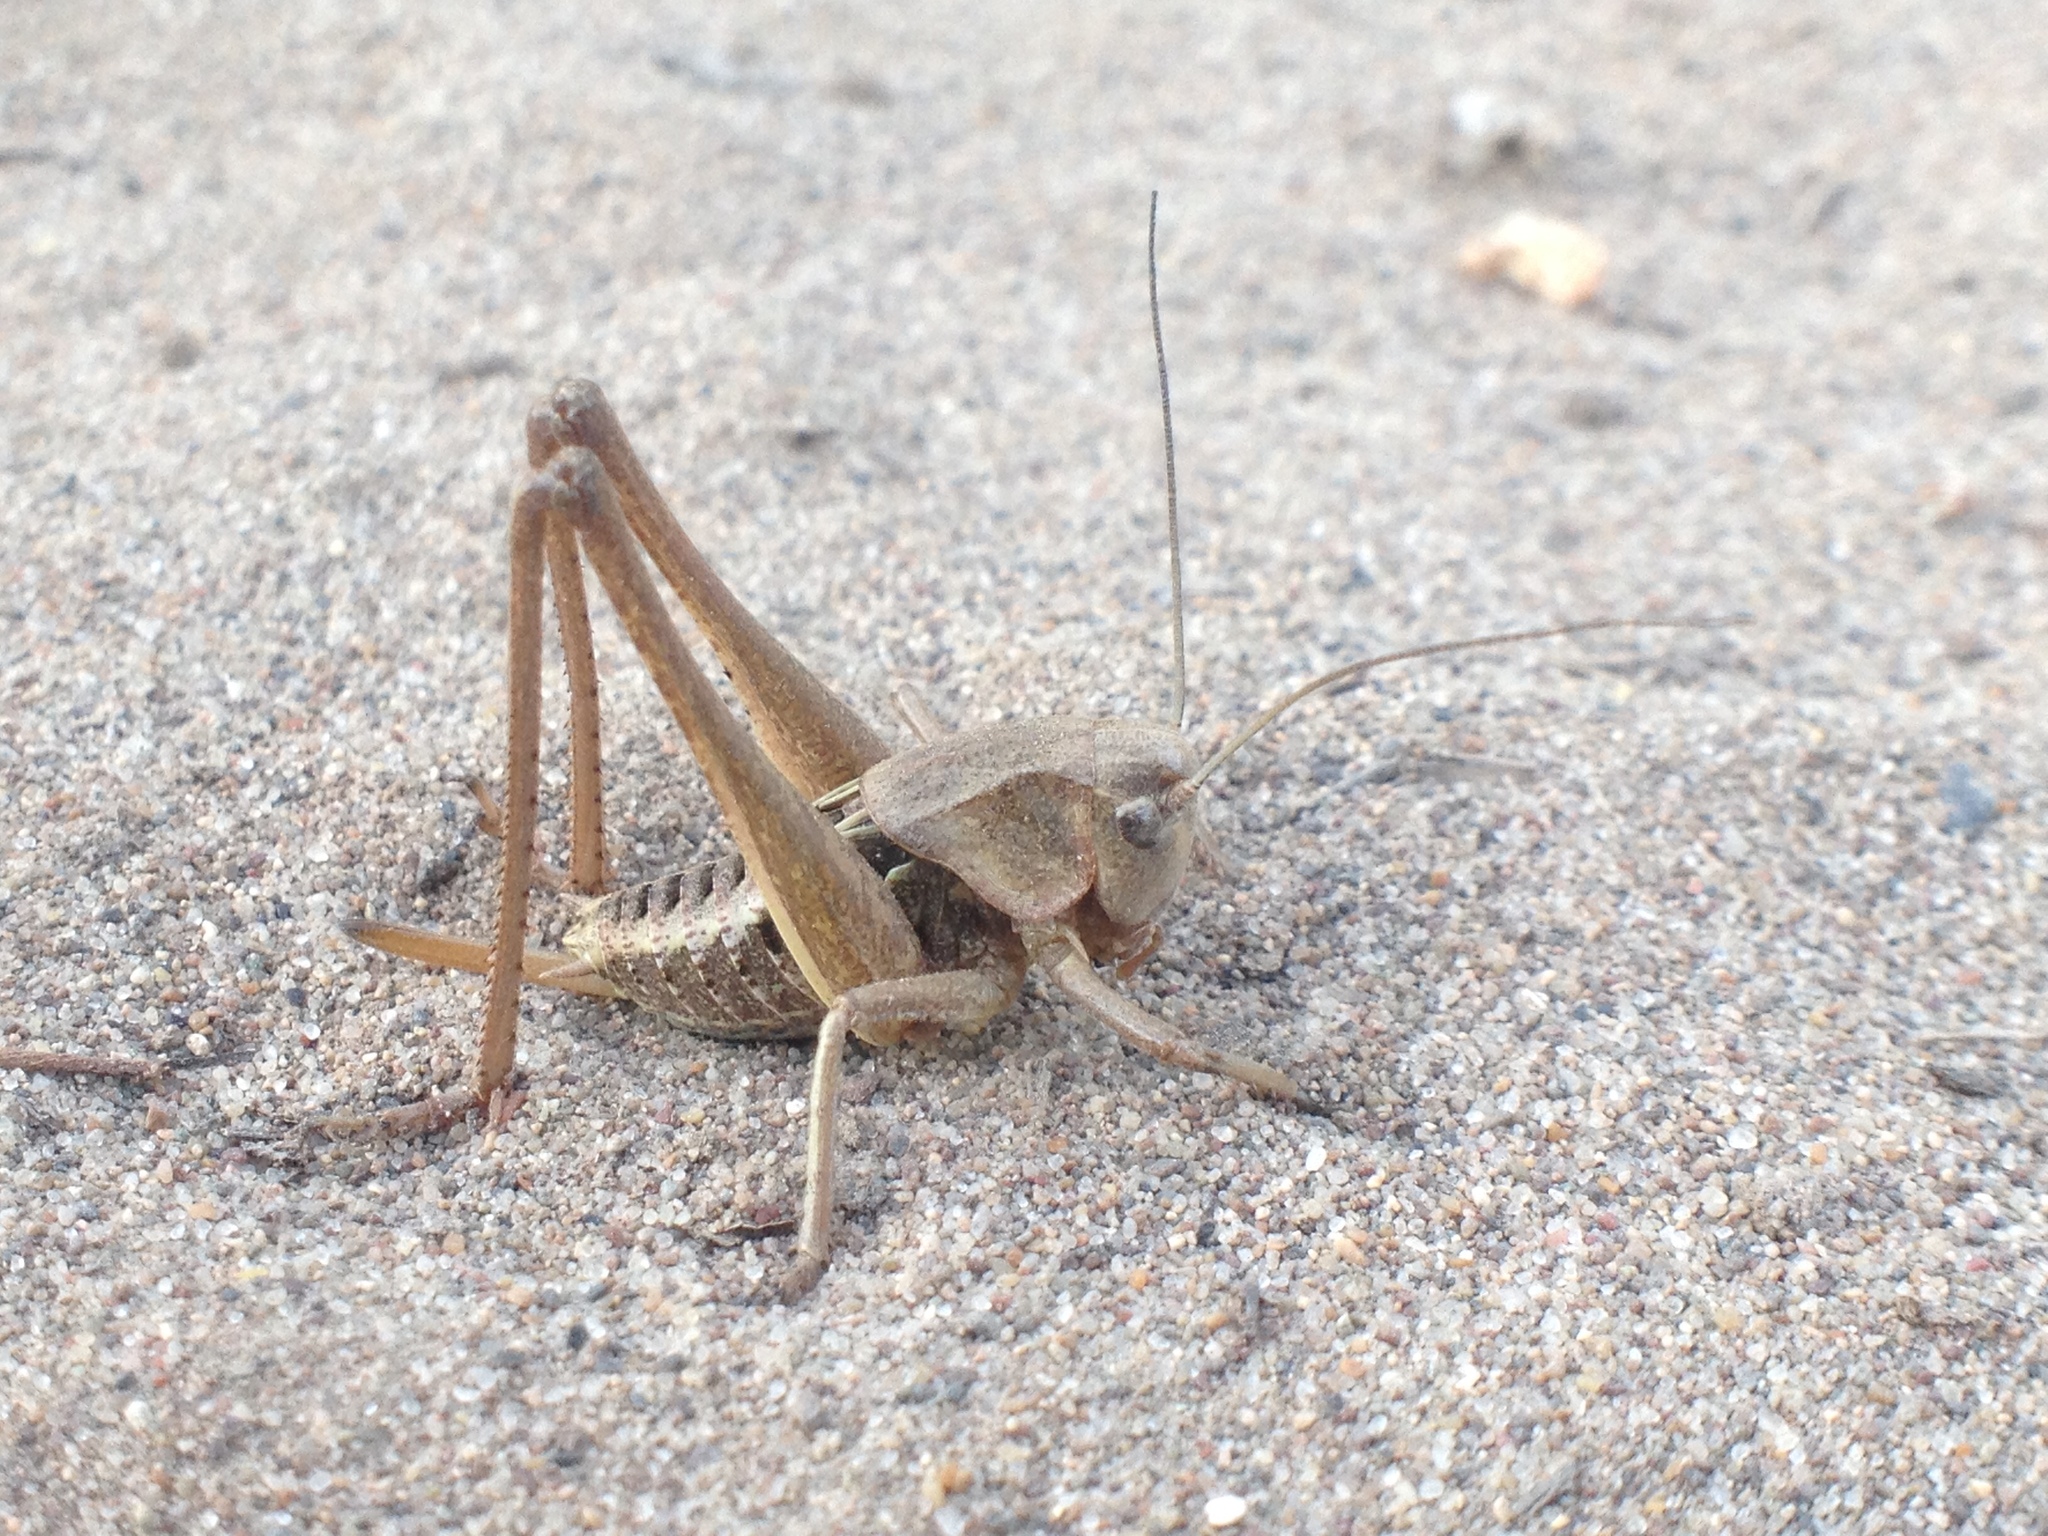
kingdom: Animalia
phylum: Arthropoda
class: Insecta
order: Orthoptera
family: Tettigoniidae
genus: Decticus
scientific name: Decticus verrucivorus
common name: Wart-biter
